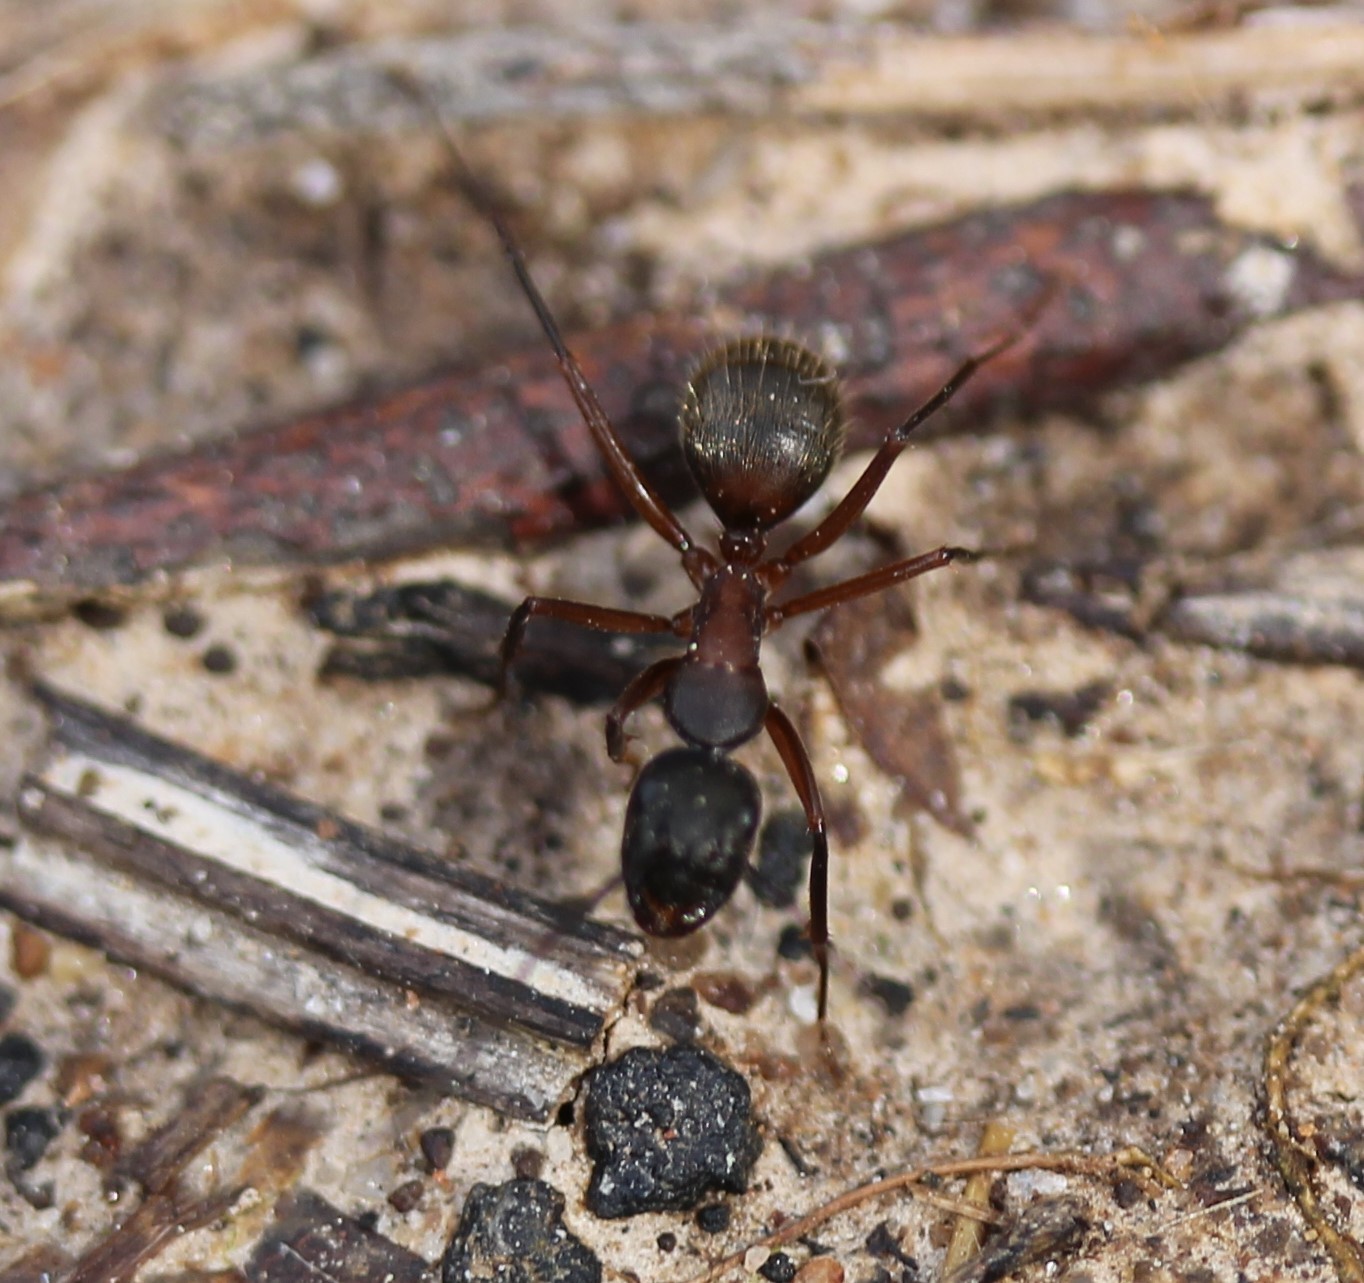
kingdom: Animalia
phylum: Arthropoda
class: Insecta
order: Hymenoptera
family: Formicidae
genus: Camponotus
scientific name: Camponotus chromaiodes
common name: Red carpenter ant
